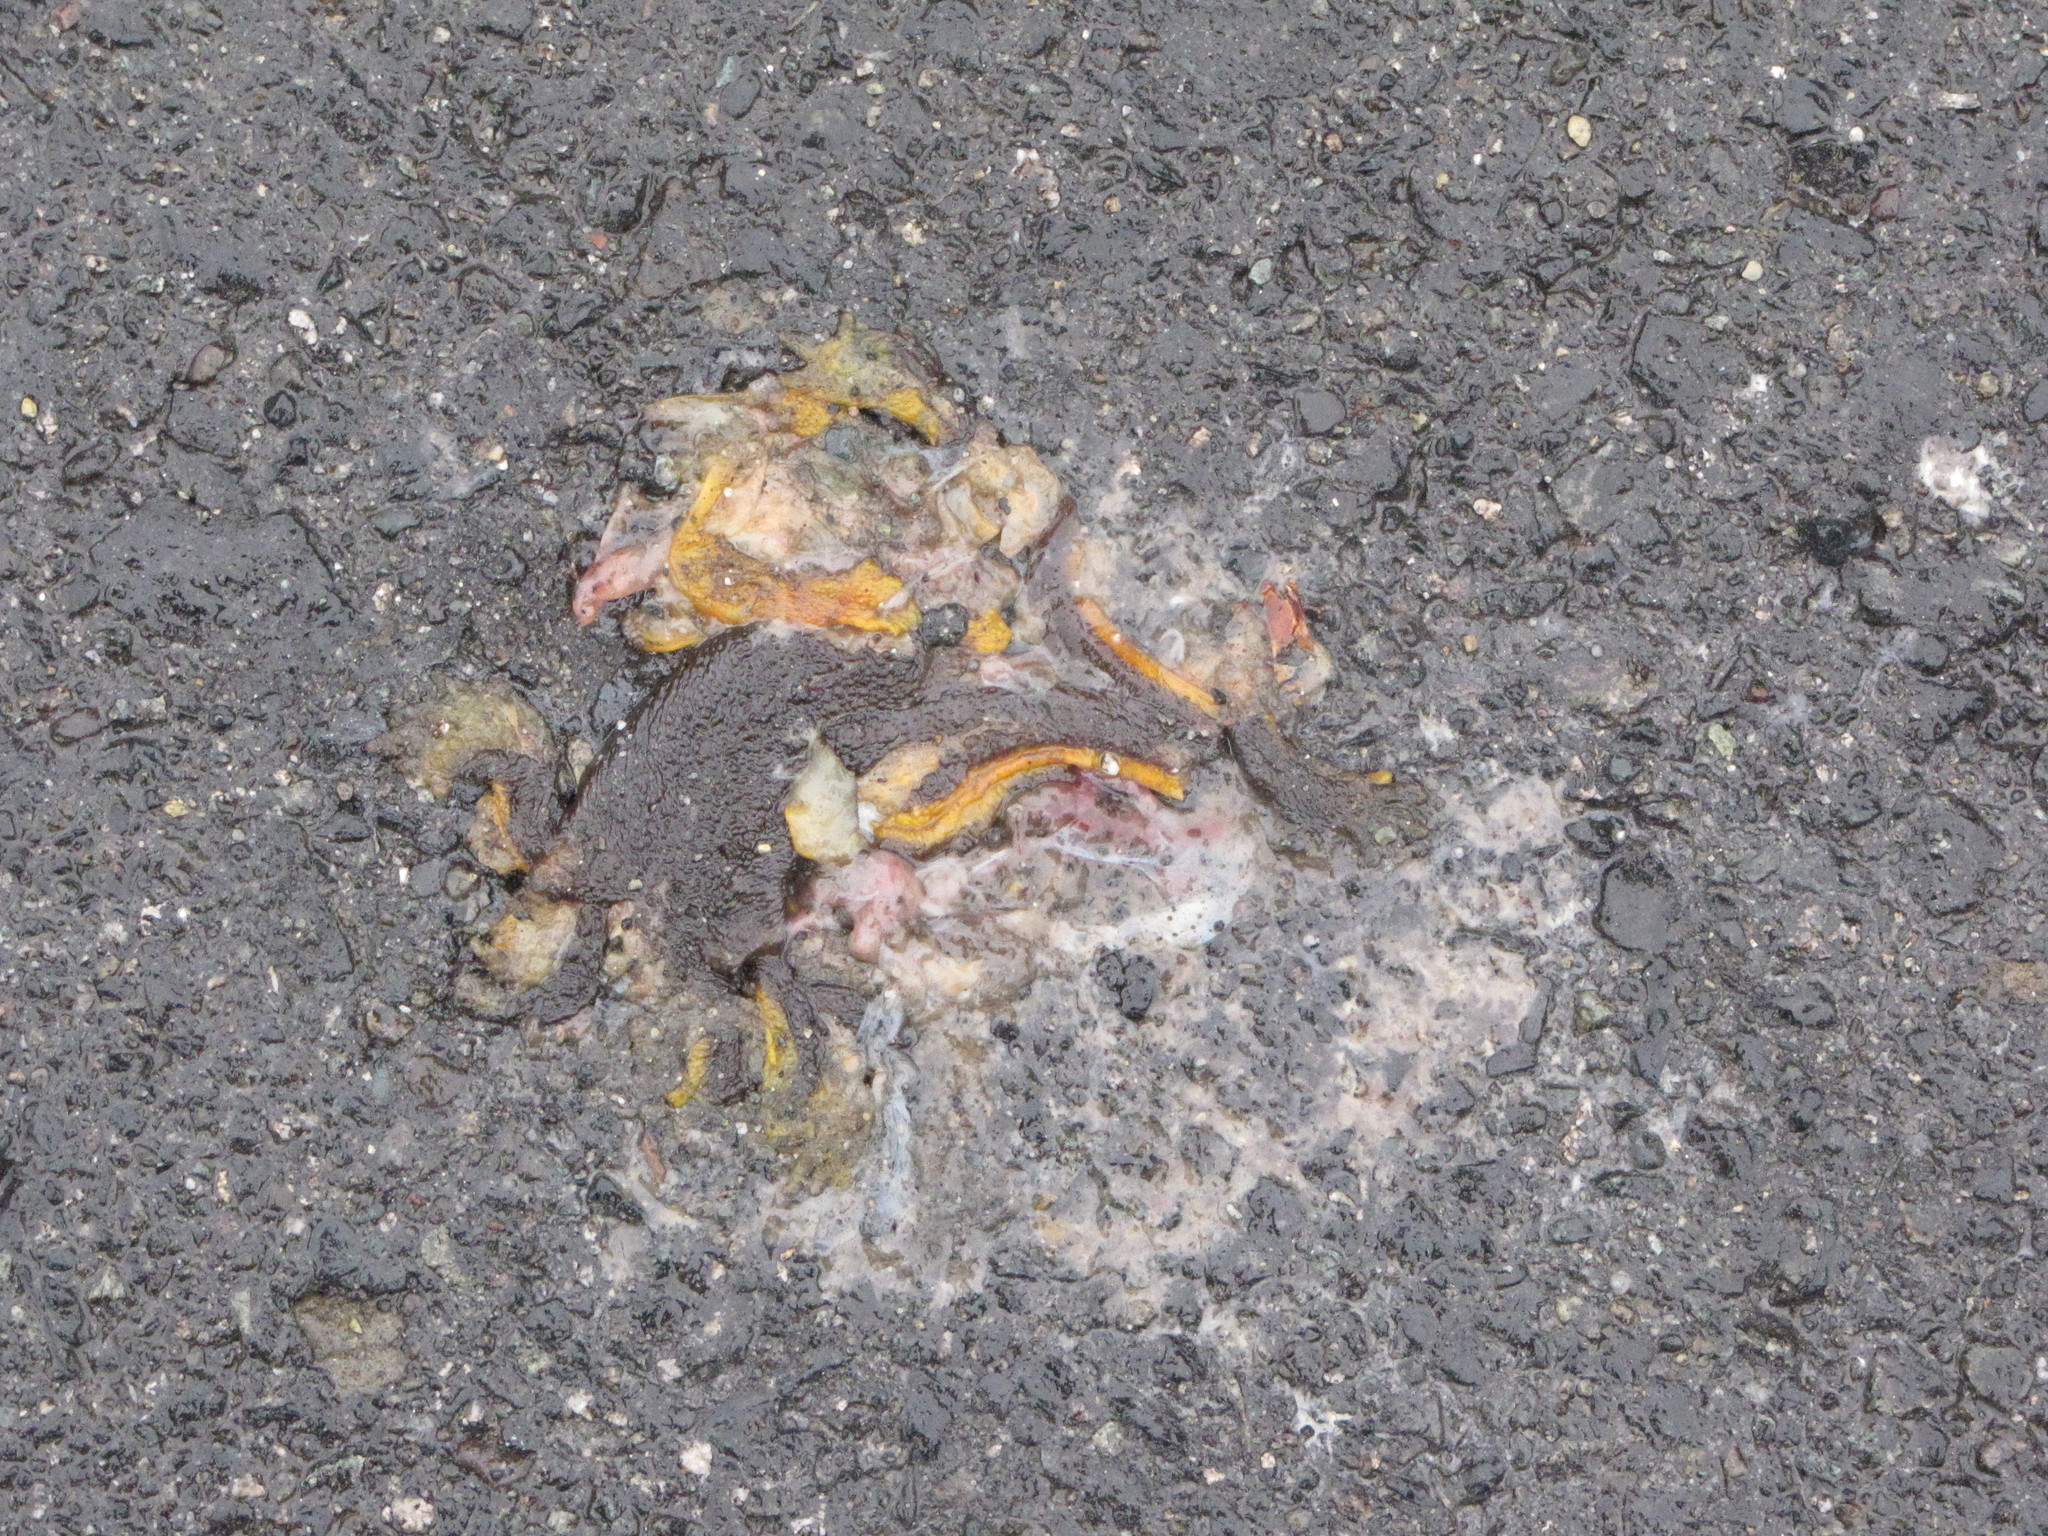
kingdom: Animalia
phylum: Chordata
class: Amphibia
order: Caudata
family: Salamandridae
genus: Taricha
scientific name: Taricha granulosa
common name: Roughskin newt
